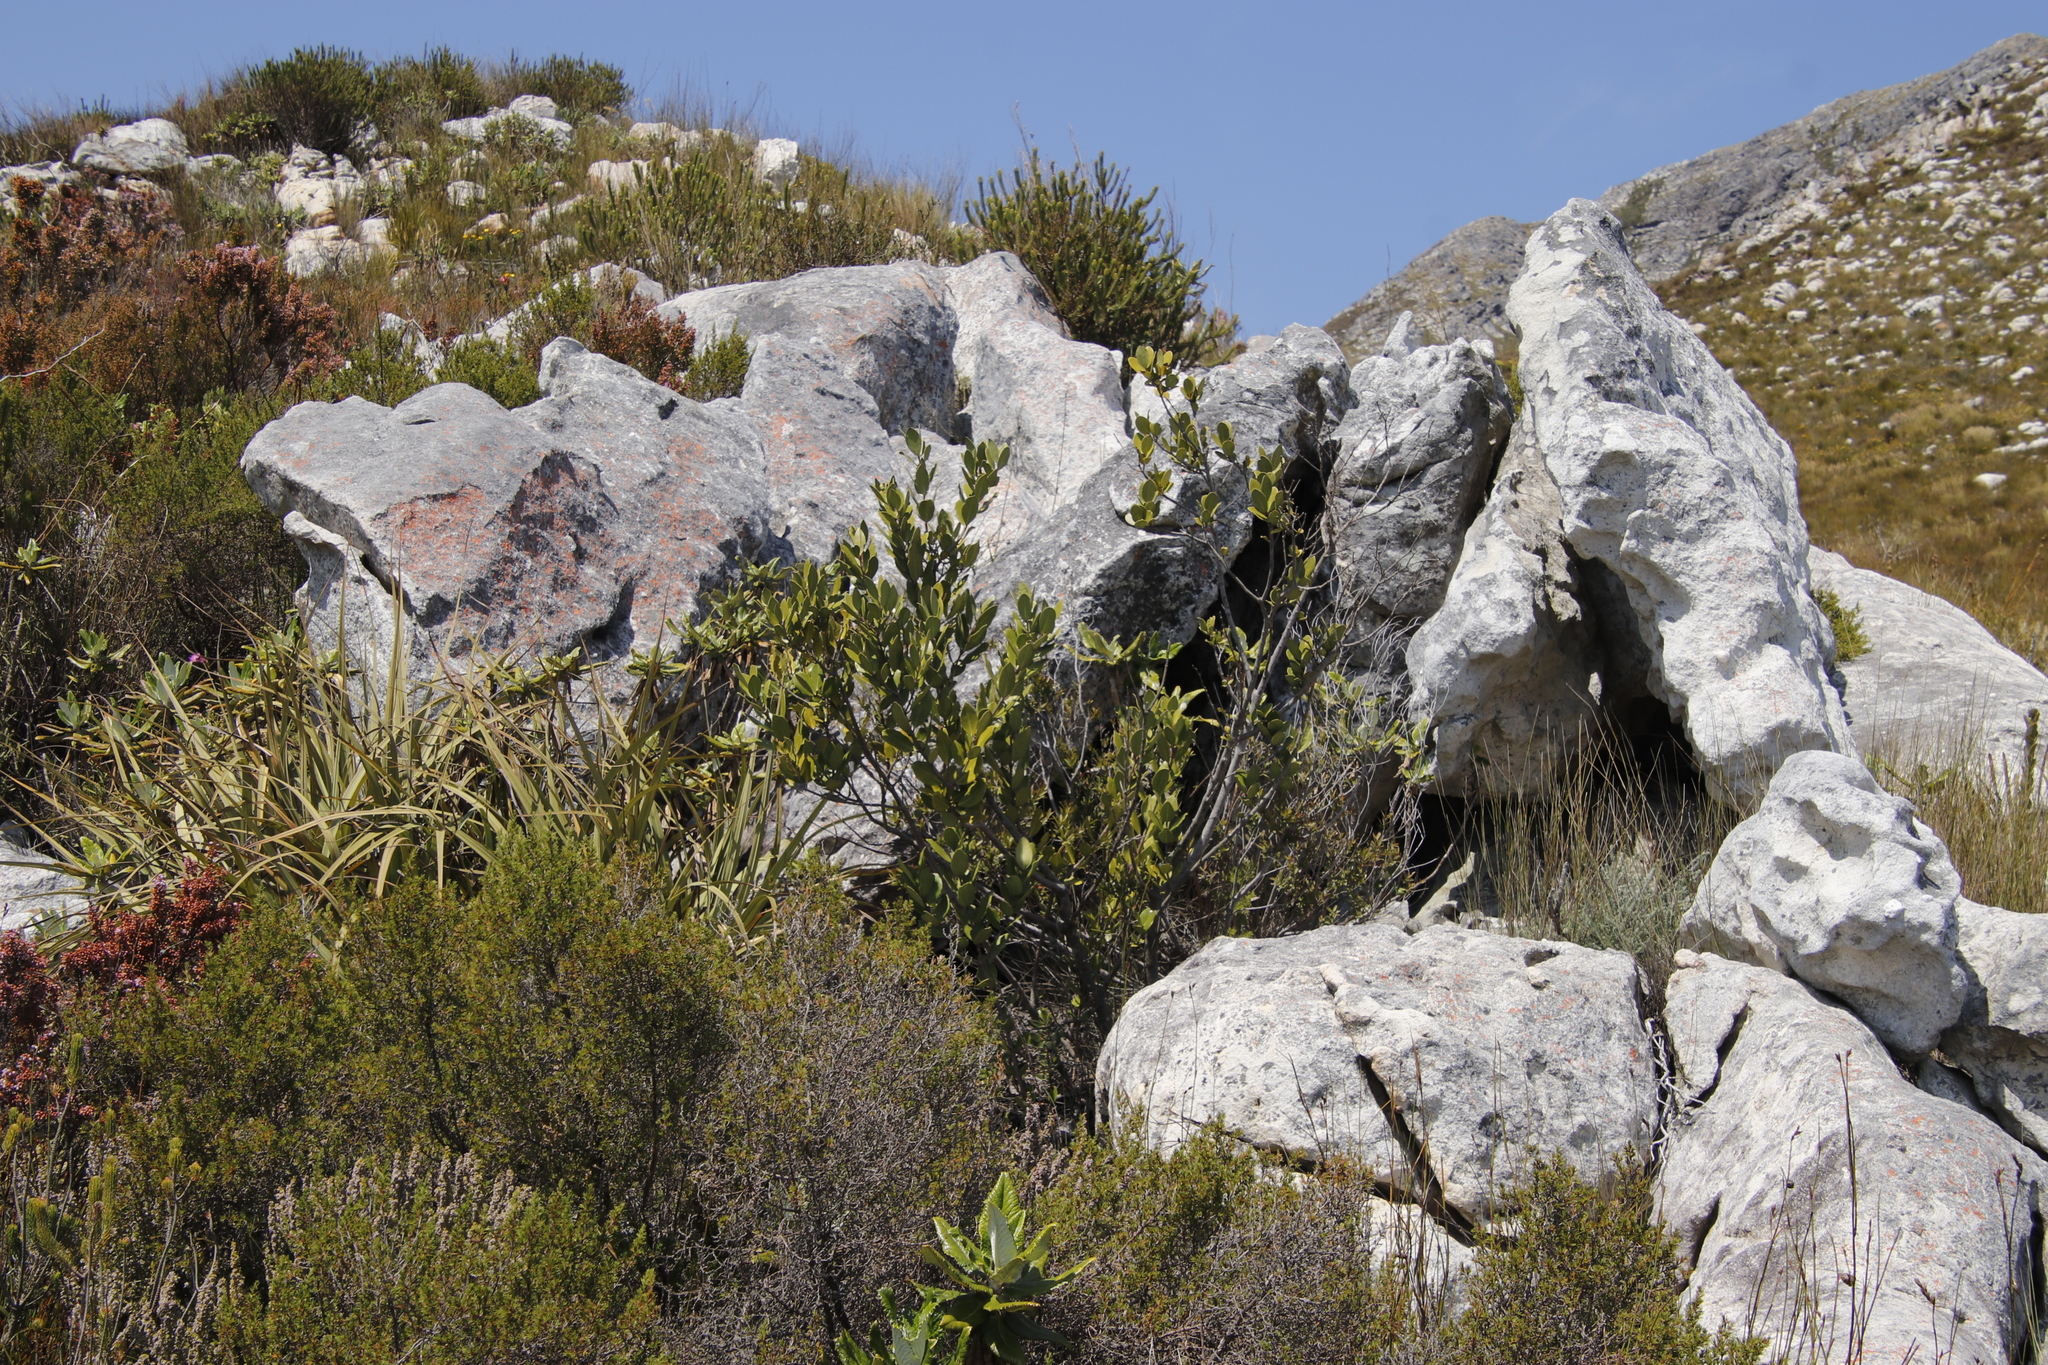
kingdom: Plantae
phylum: Tracheophyta
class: Magnoliopsida
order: Celastrales
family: Celastraceae
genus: Gymnosporia
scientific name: Gymnosporia laurina
